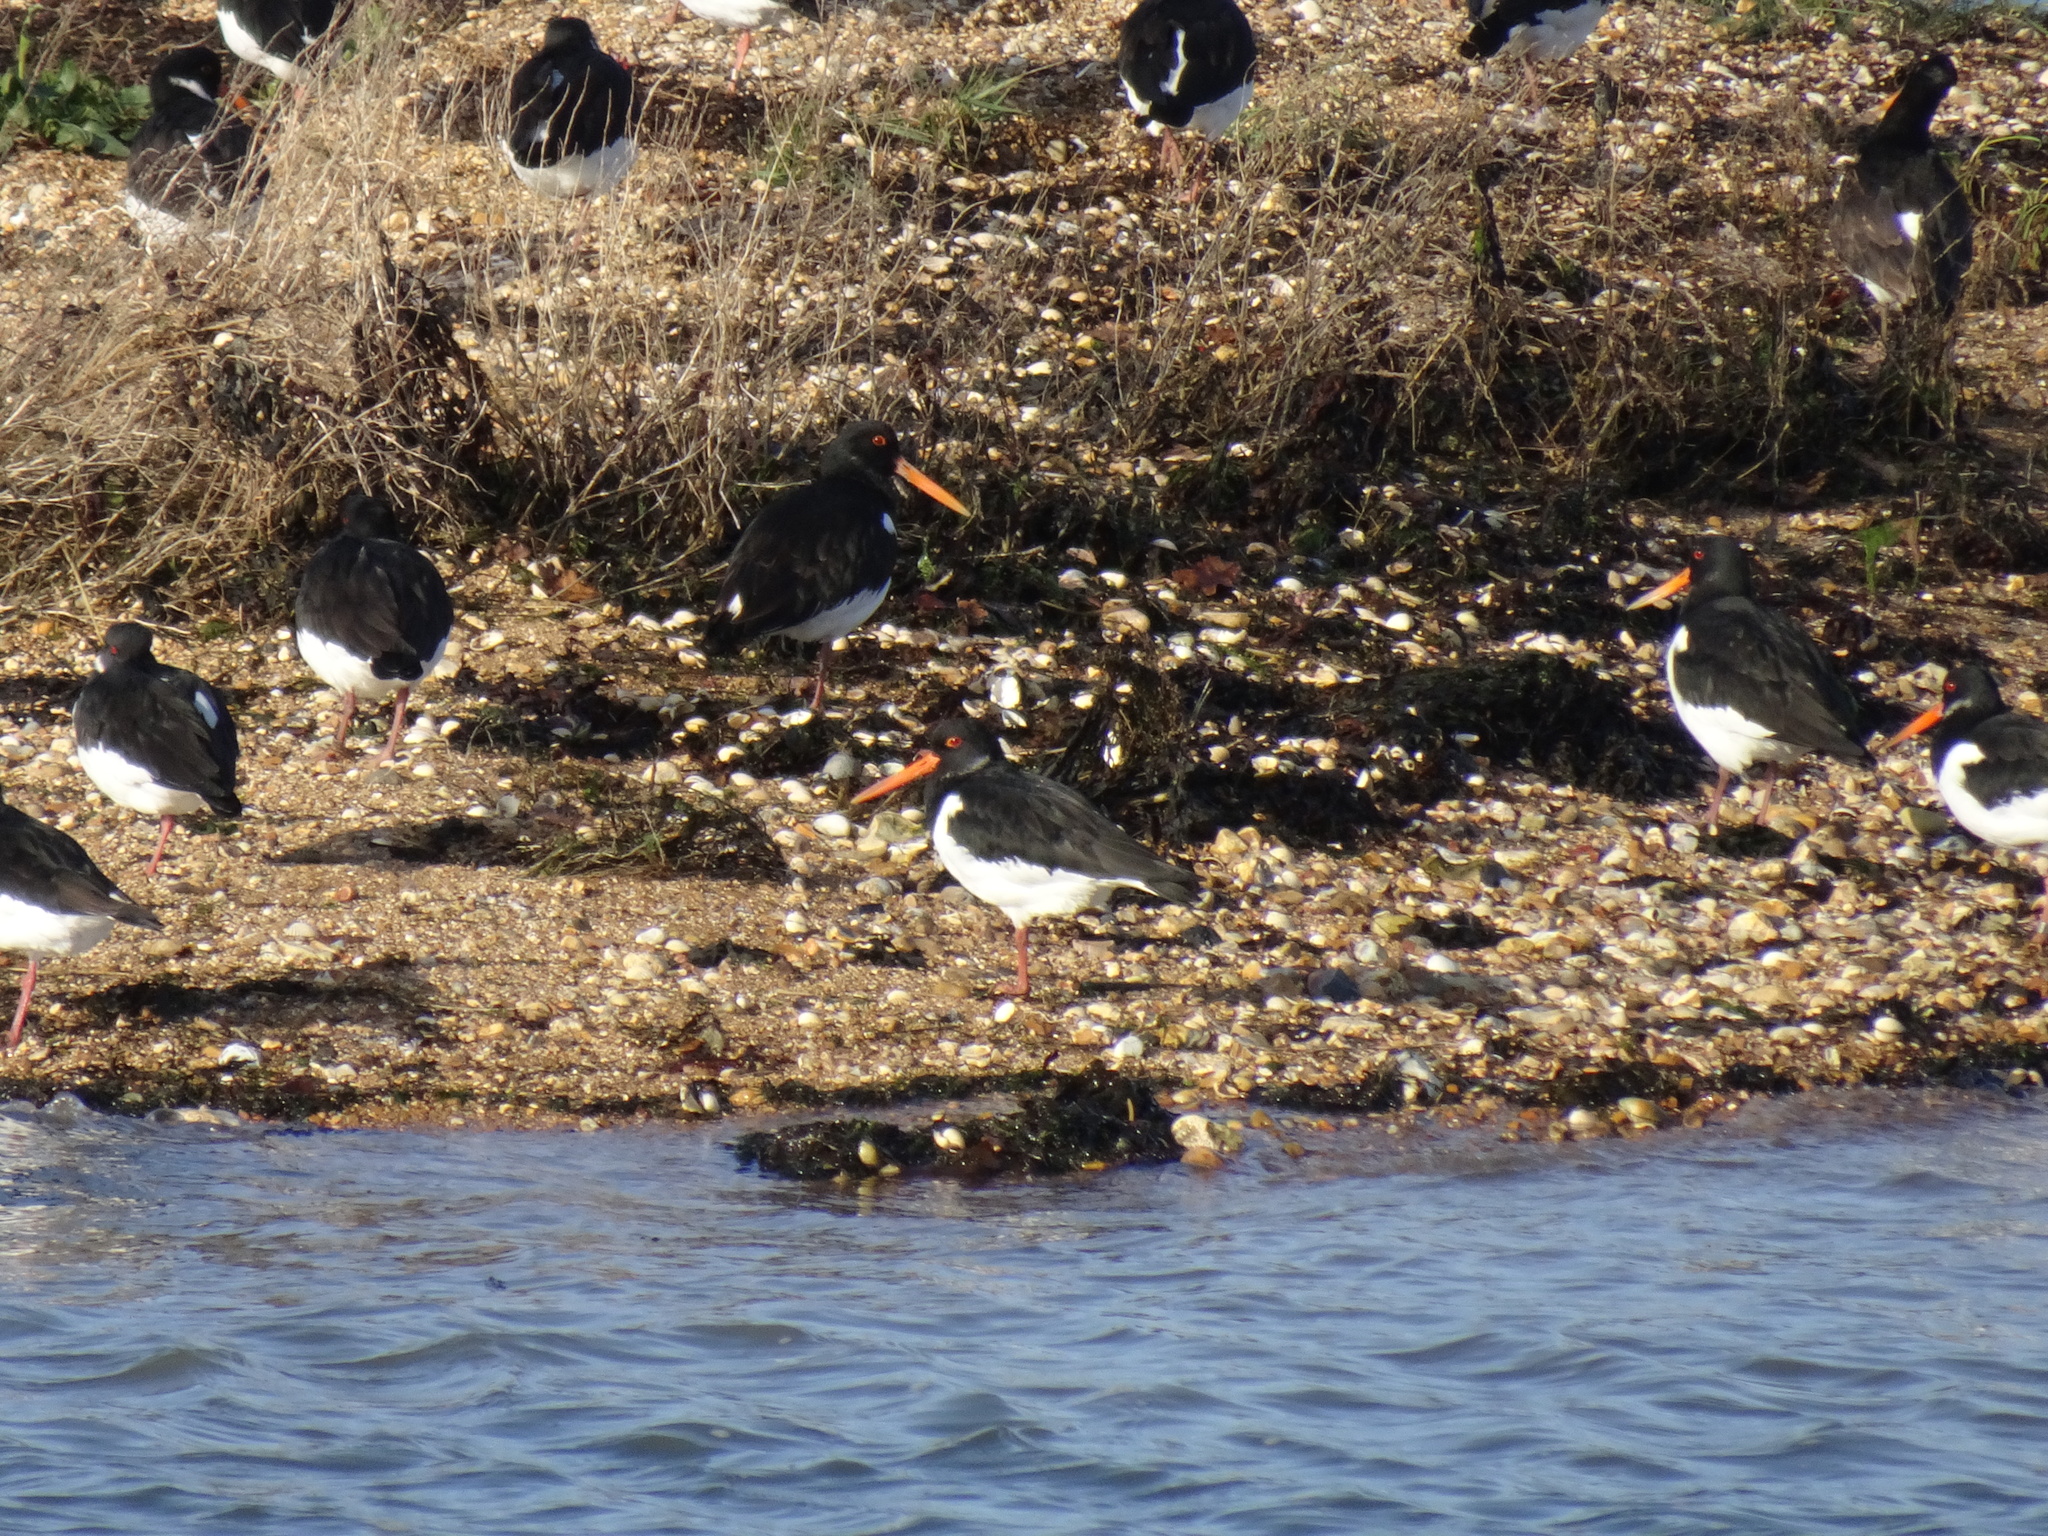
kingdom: Animalia
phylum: Chordata
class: Aves
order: Charadriiformes
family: Haematopodidae
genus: Haematopus
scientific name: Haematopus ostralegus
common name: Eurasian oystercatcher
